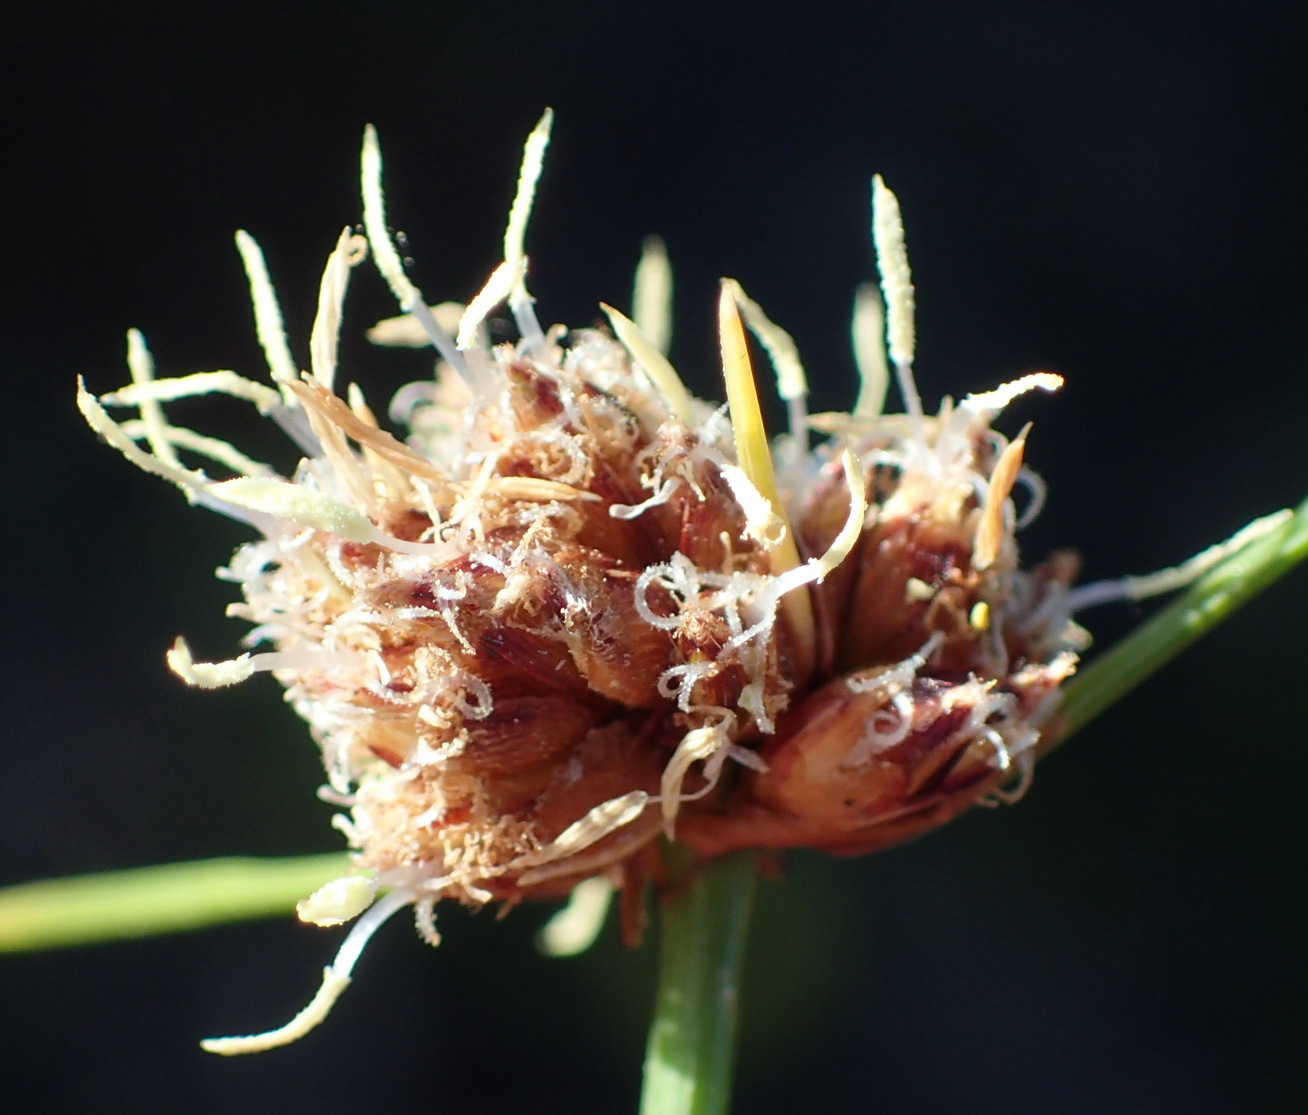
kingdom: Plantae
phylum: Tracheophyta
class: Liliopsida
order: Poales
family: Cyperaceae
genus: Ficinia
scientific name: Ficinia laciniata
